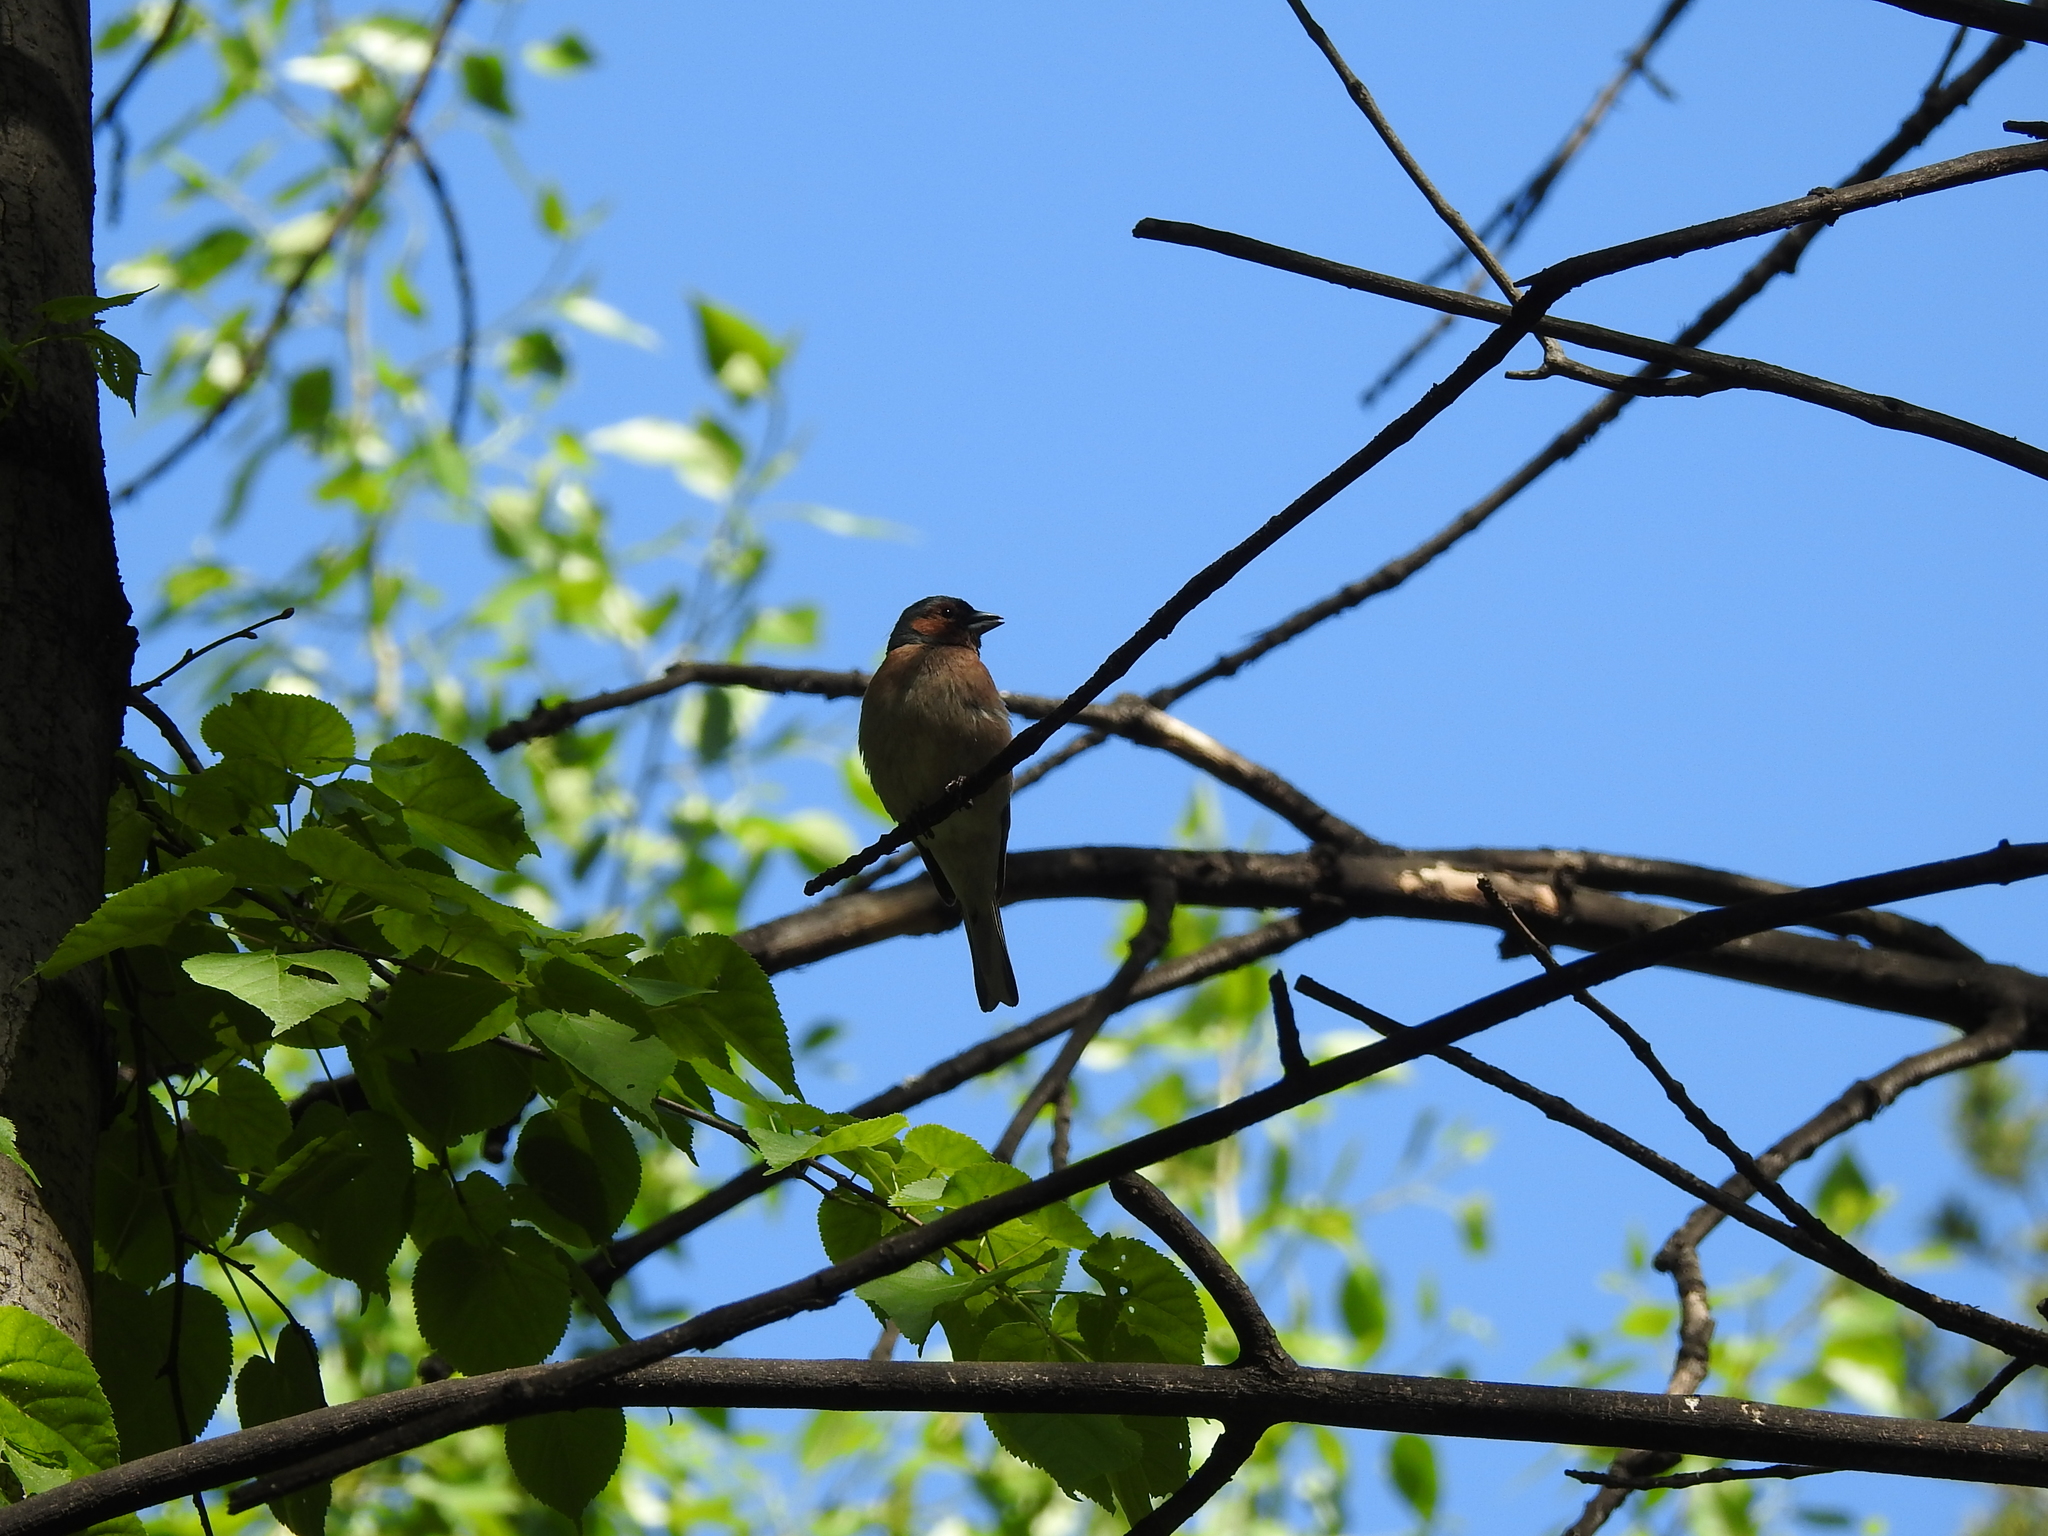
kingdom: Animalia
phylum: Chordata
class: Aves
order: Passeriformes
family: Fringillidae
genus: Fringilla
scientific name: Fringilla coelebs
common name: Common chaffinch
